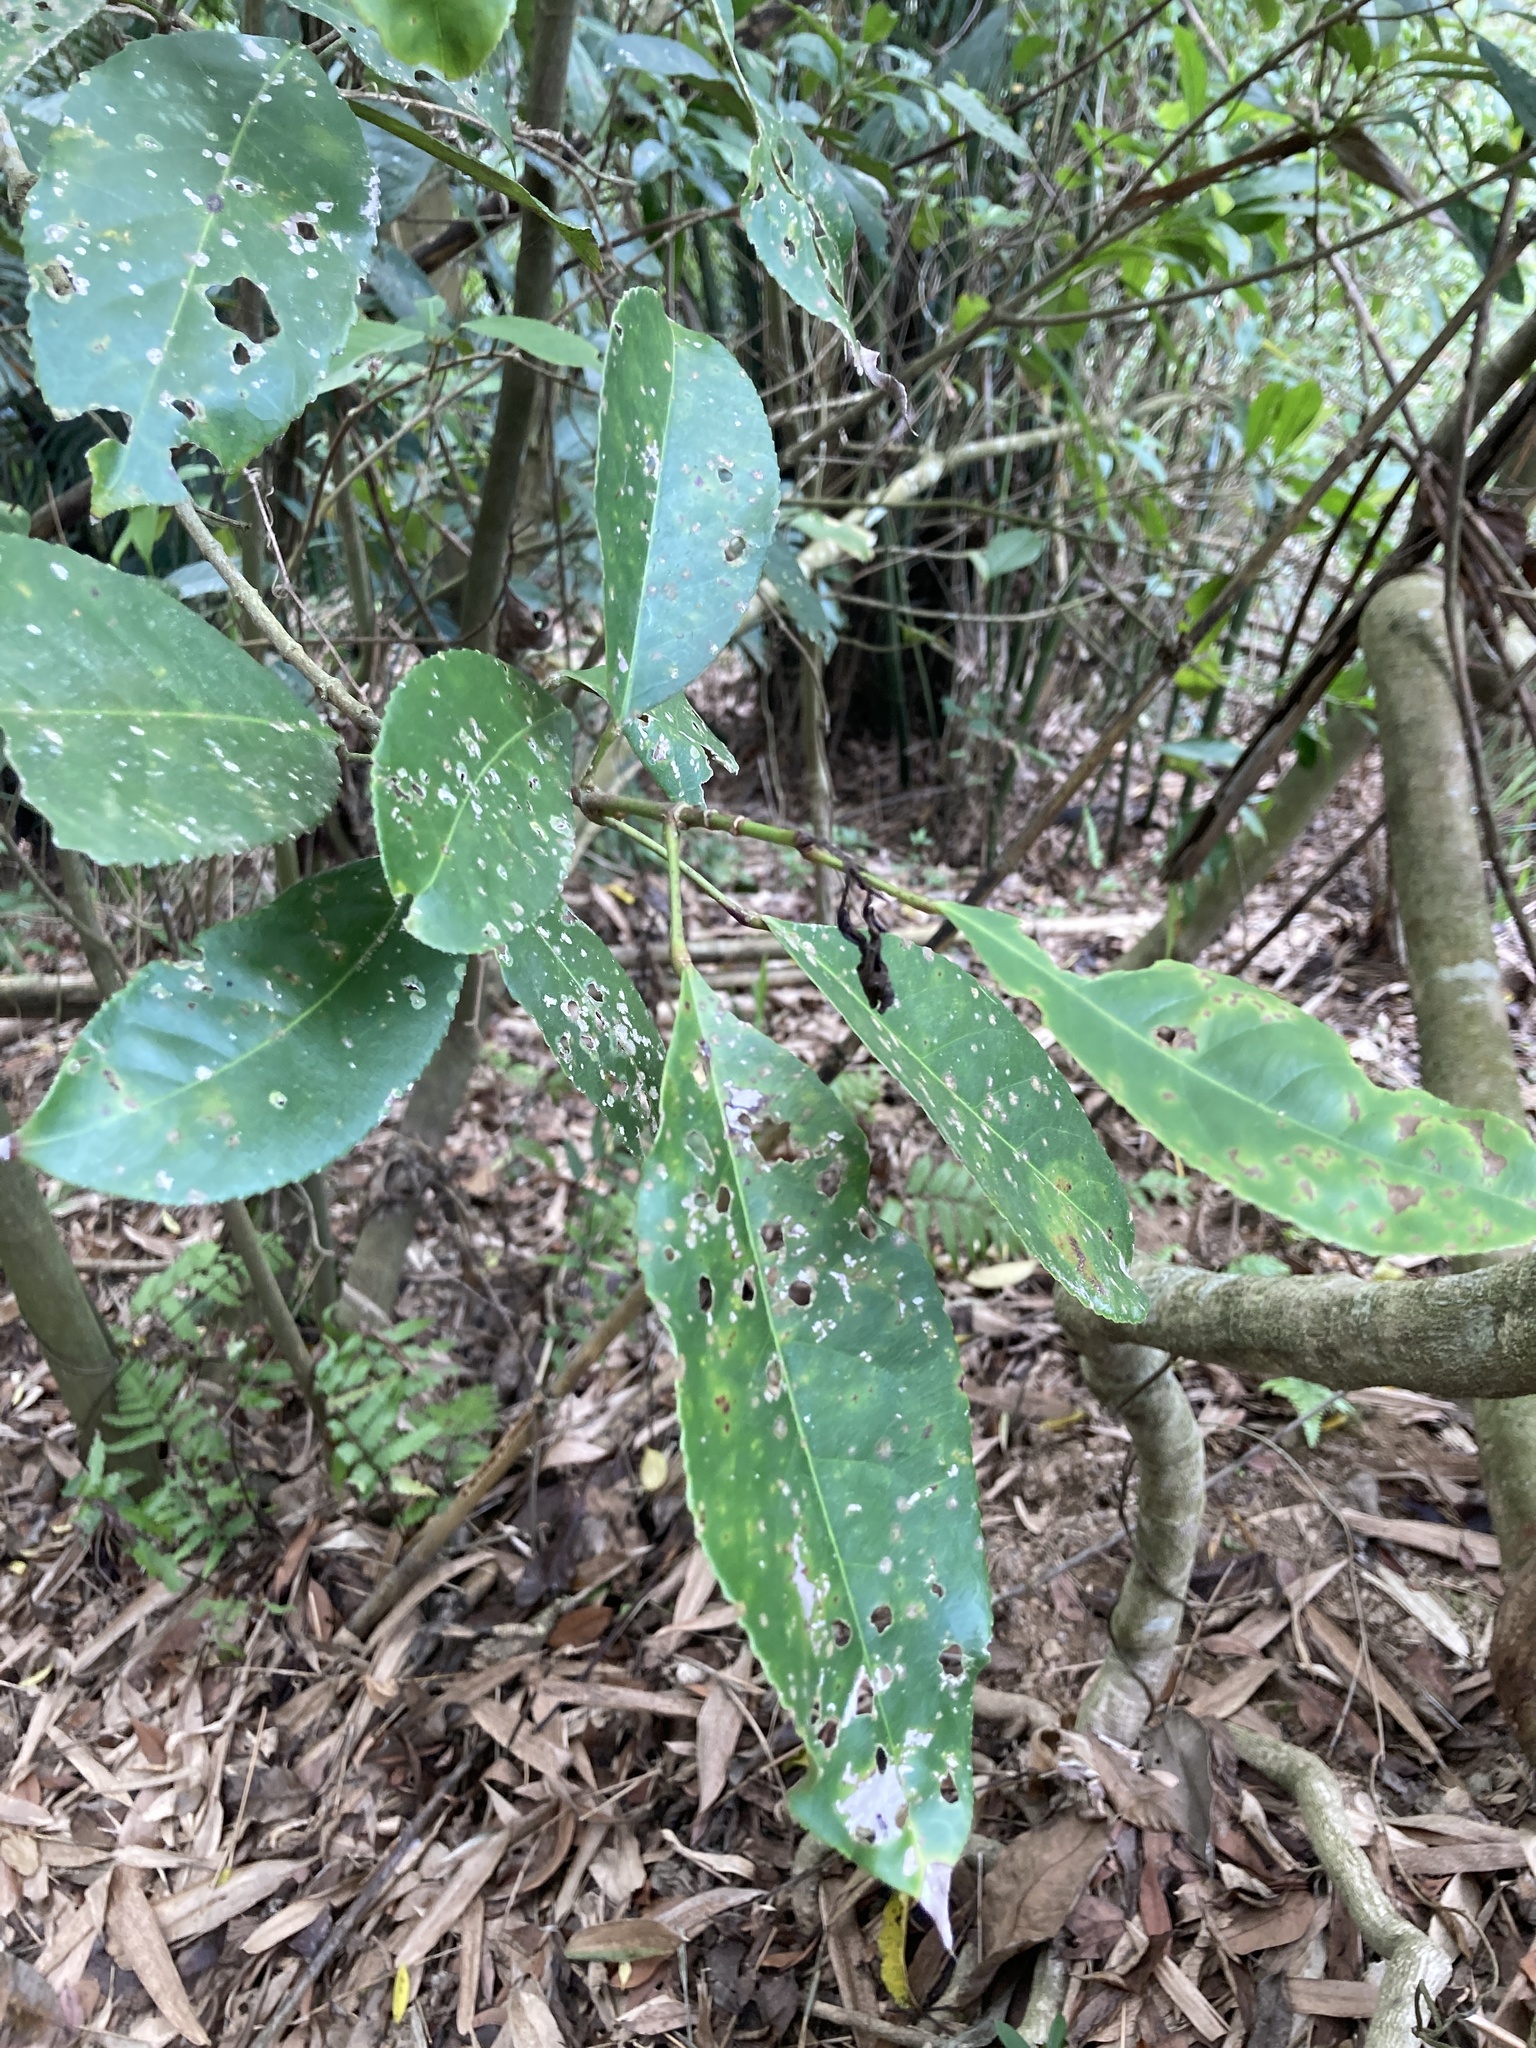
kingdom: Plantae
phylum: Tracheophyta
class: Magnoliopsida
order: Crossosomatales
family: Staphyleaceae
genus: Turpinia
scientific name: Turpinia formosana
